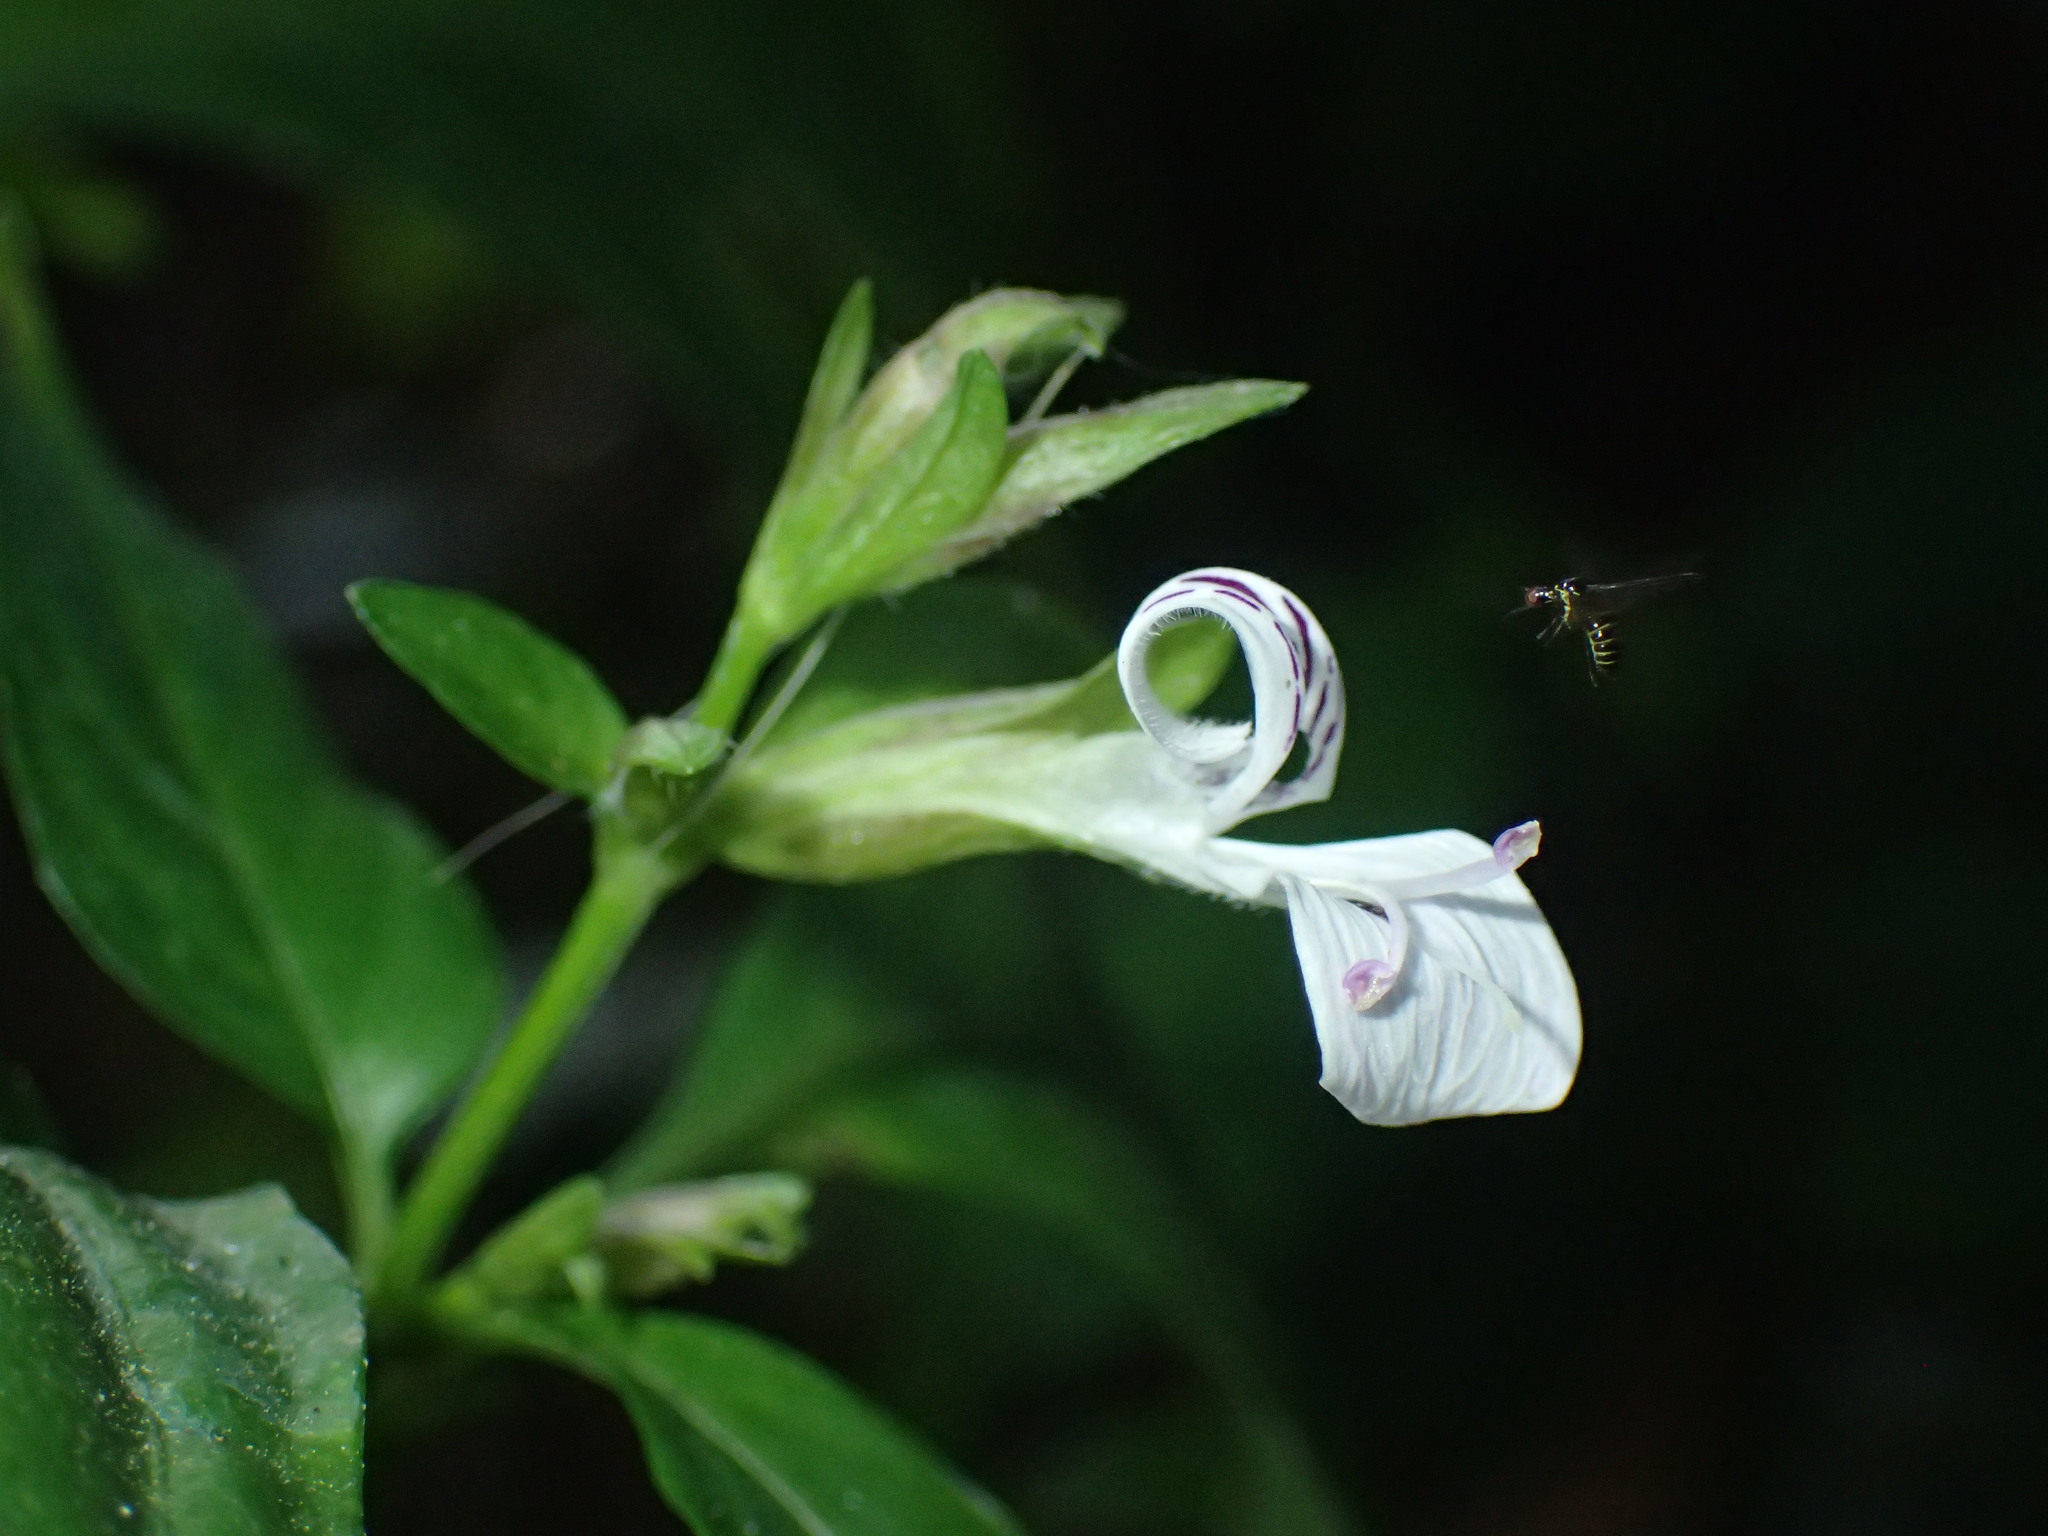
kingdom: Plantae
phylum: Tracheophyta
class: Magnoliopsida
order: Lamiales
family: Acanthaceae
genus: Hypoestes
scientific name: Hypoestes triflora
